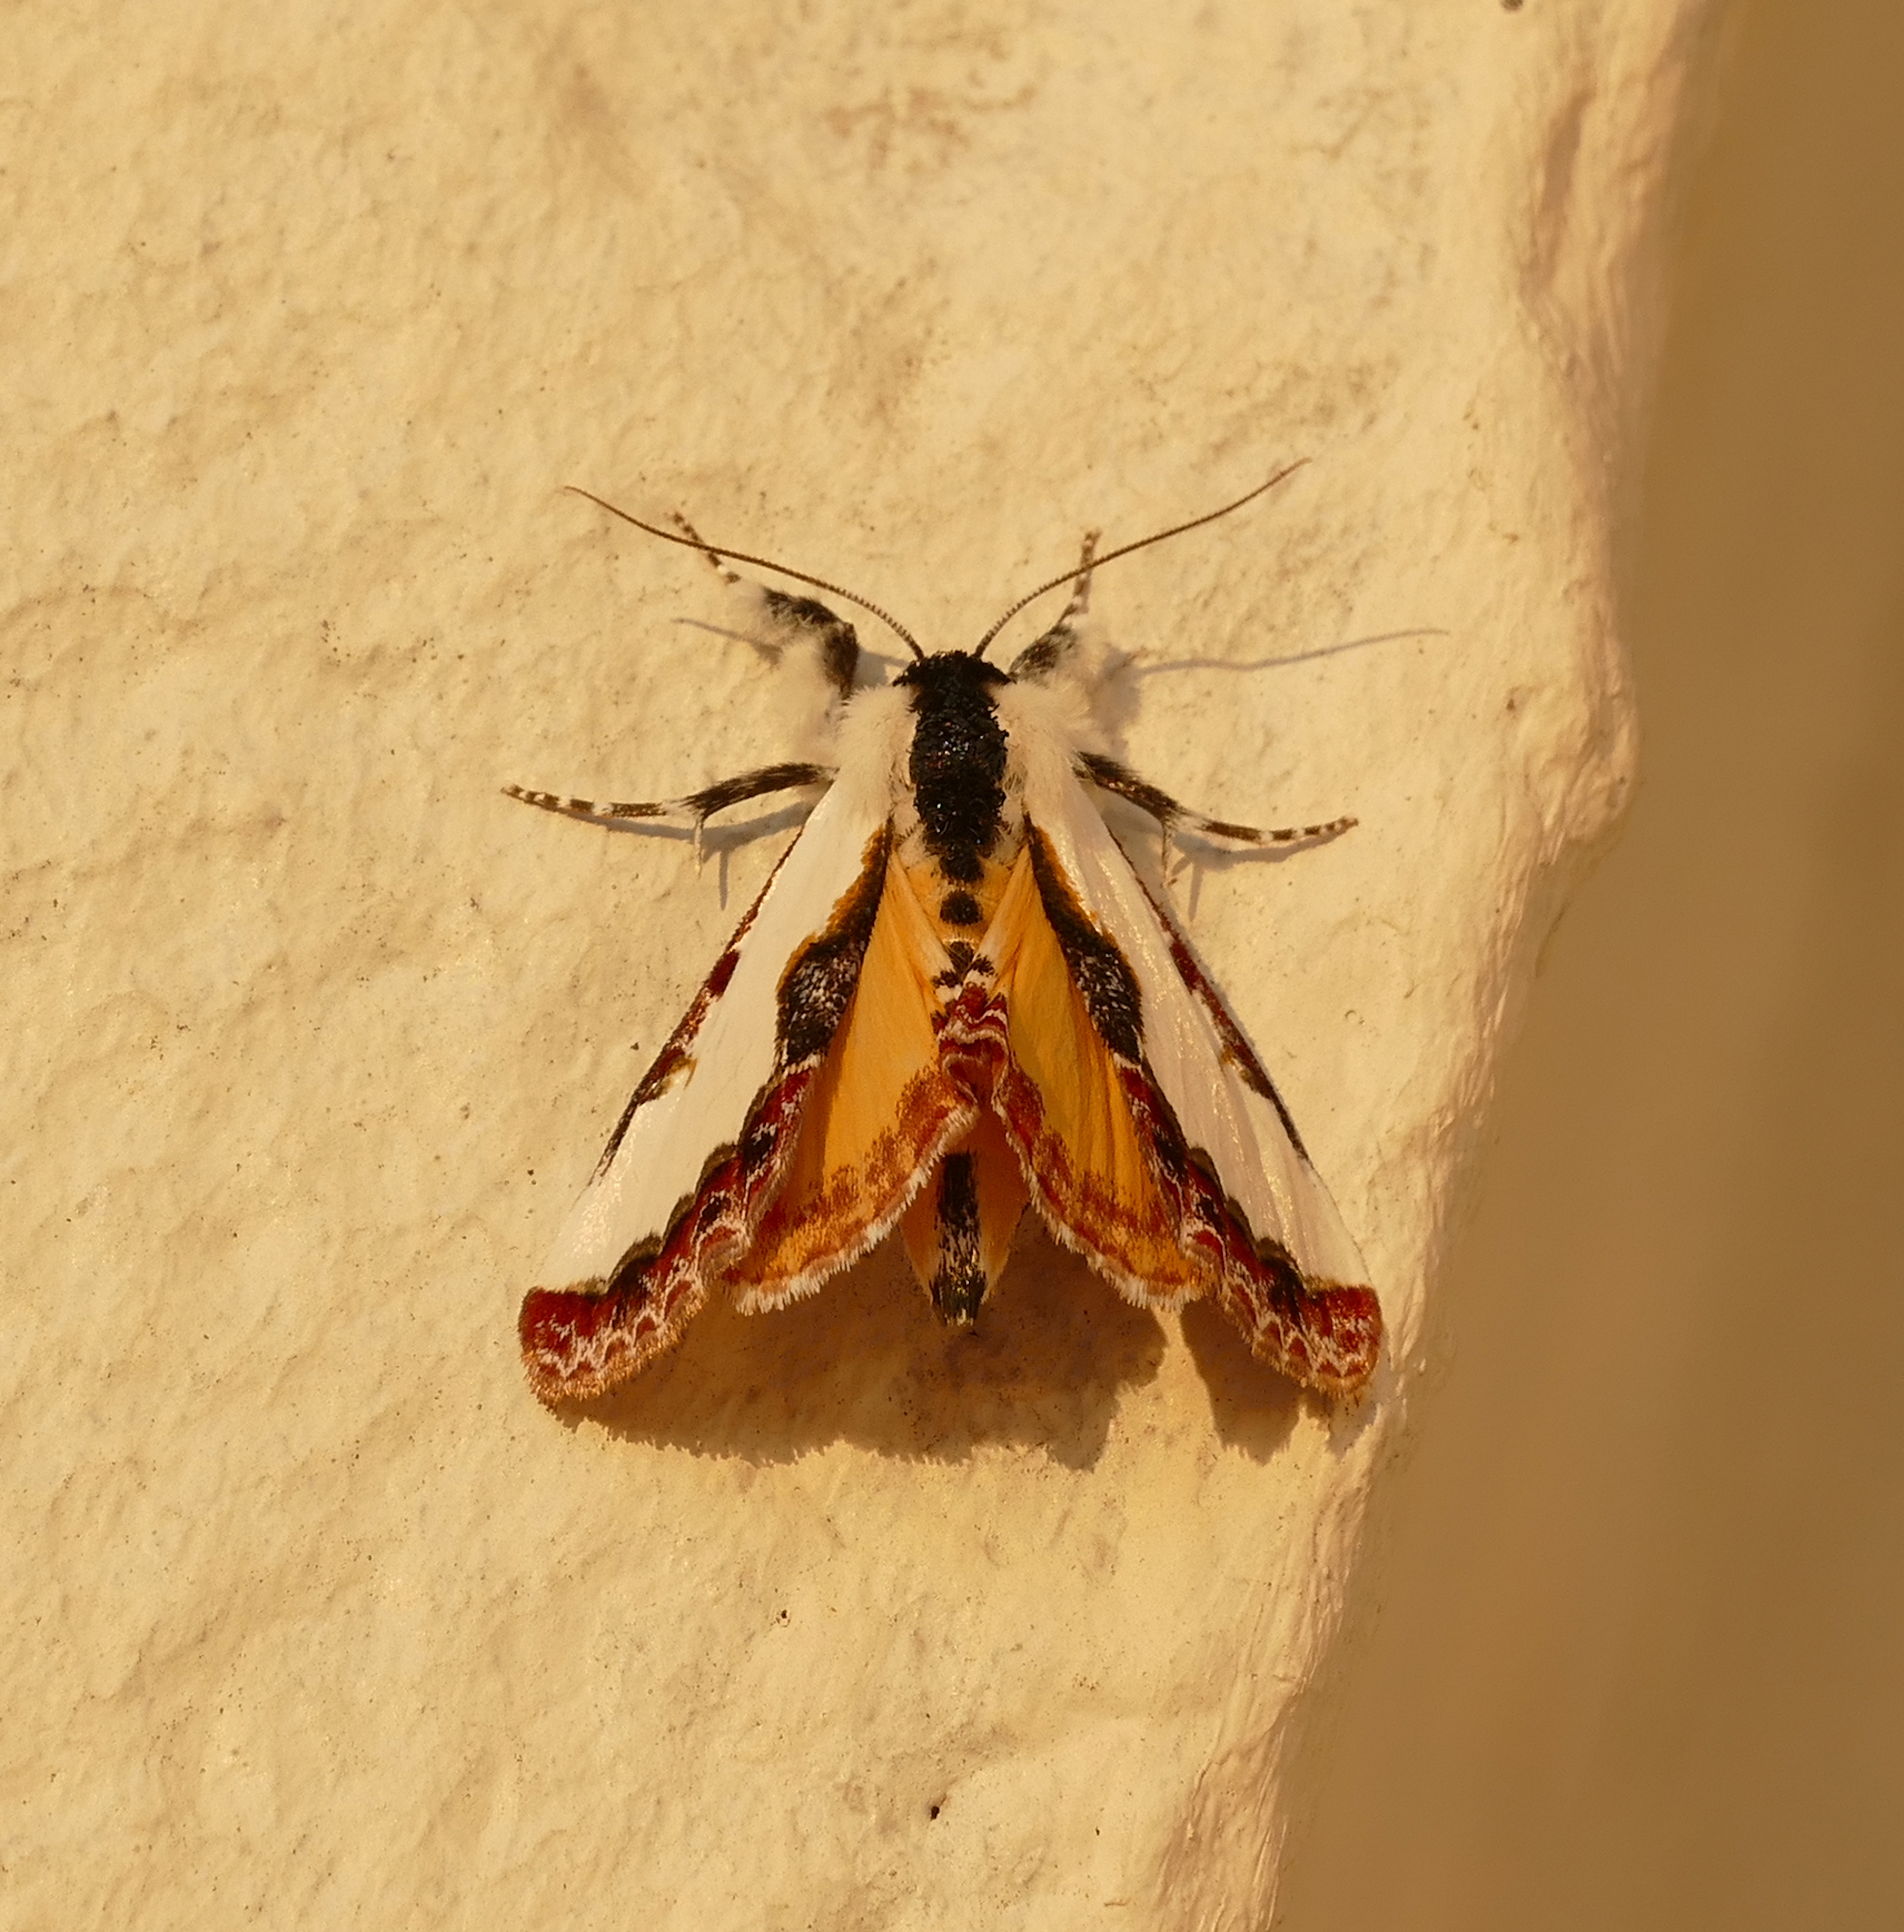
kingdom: Animalia
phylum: Arthropoda
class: Insecta
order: Lepidoptera
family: Noctuidae
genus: Eudryas
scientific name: Eudryas unio
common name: Pearly wood-nymph
